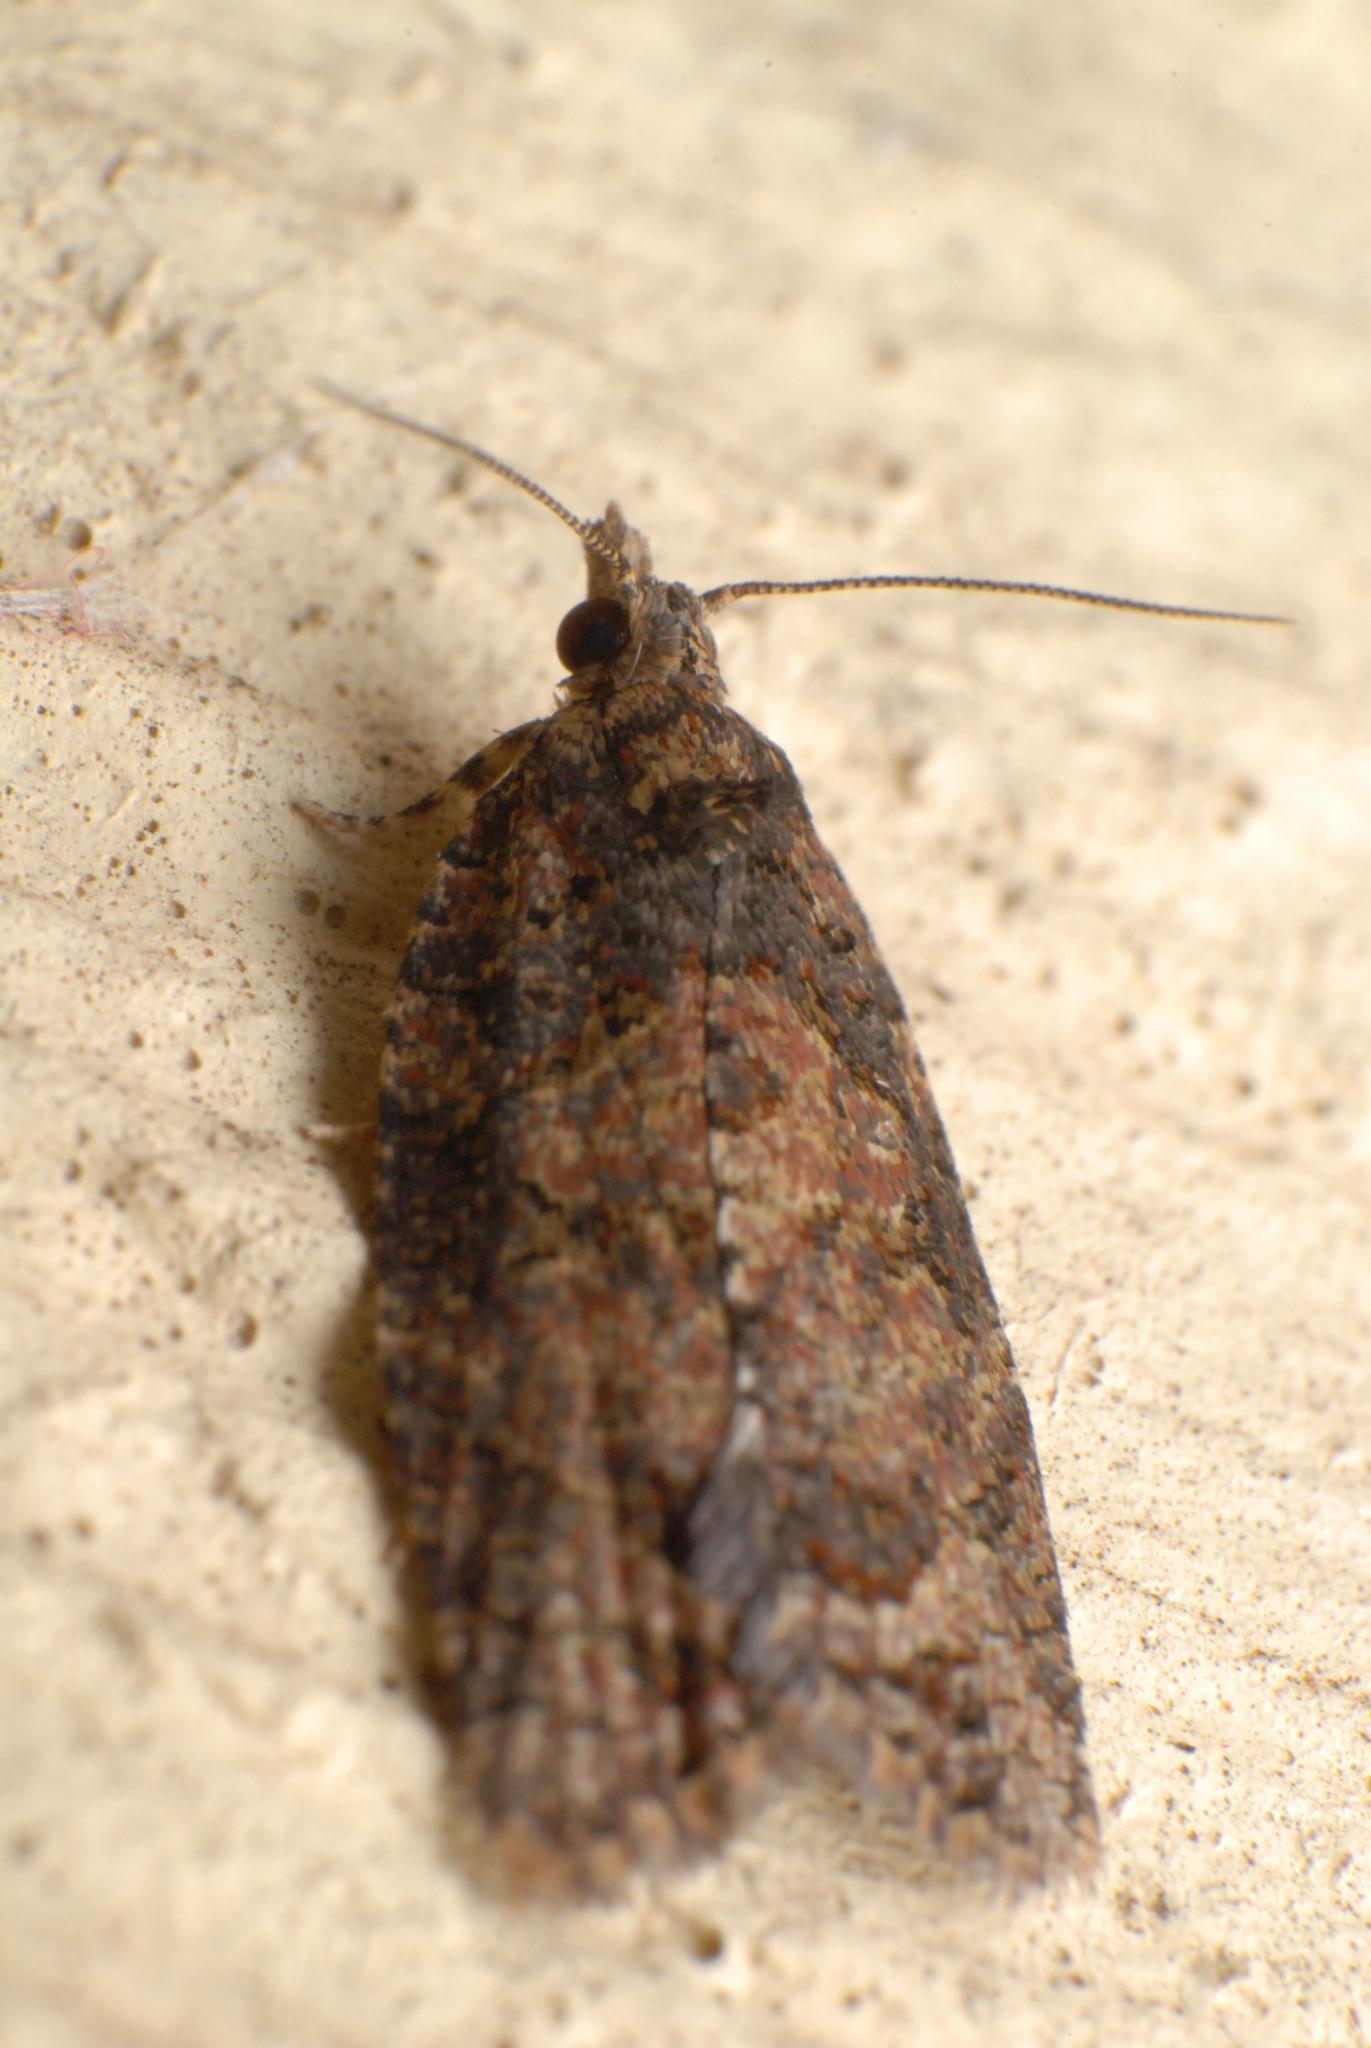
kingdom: Animalia
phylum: Arthropoda
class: Insecta
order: Lepidoptera
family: Tortricidae
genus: Capua
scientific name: Capua dura
